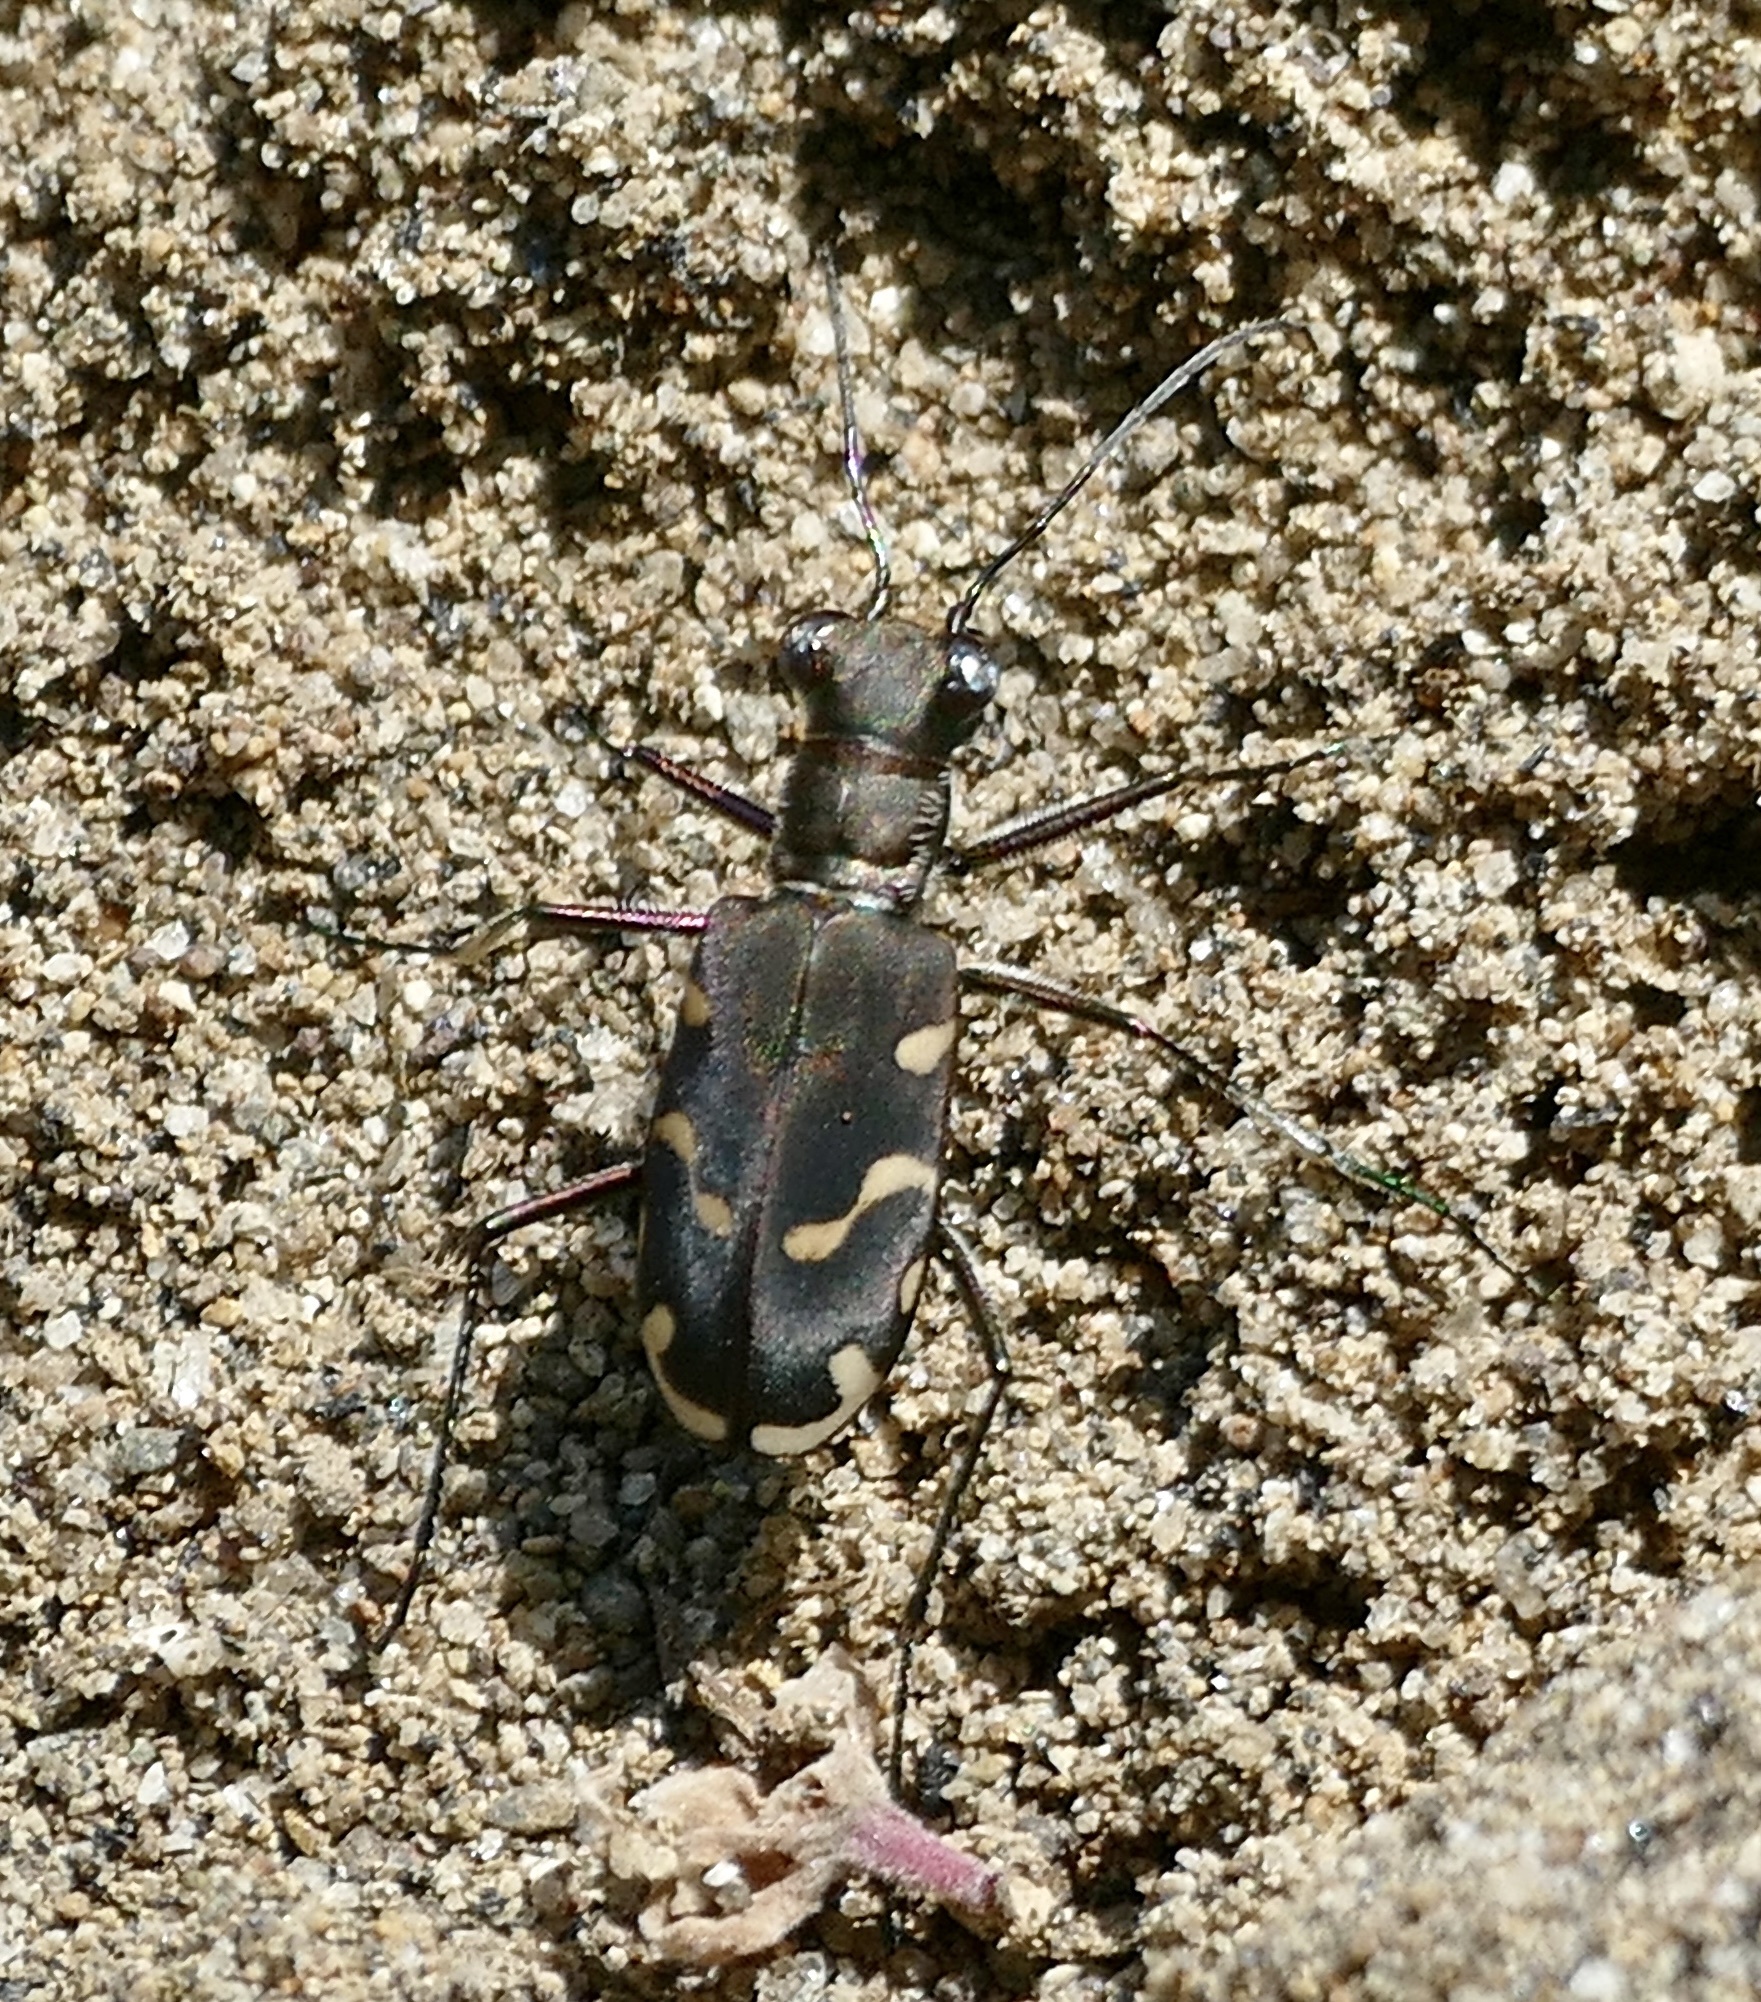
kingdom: Animalia
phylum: Arthropoda
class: Insecta
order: Coleoptera
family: Carabidae
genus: Cicindela
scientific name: Cicindela decemguttata
